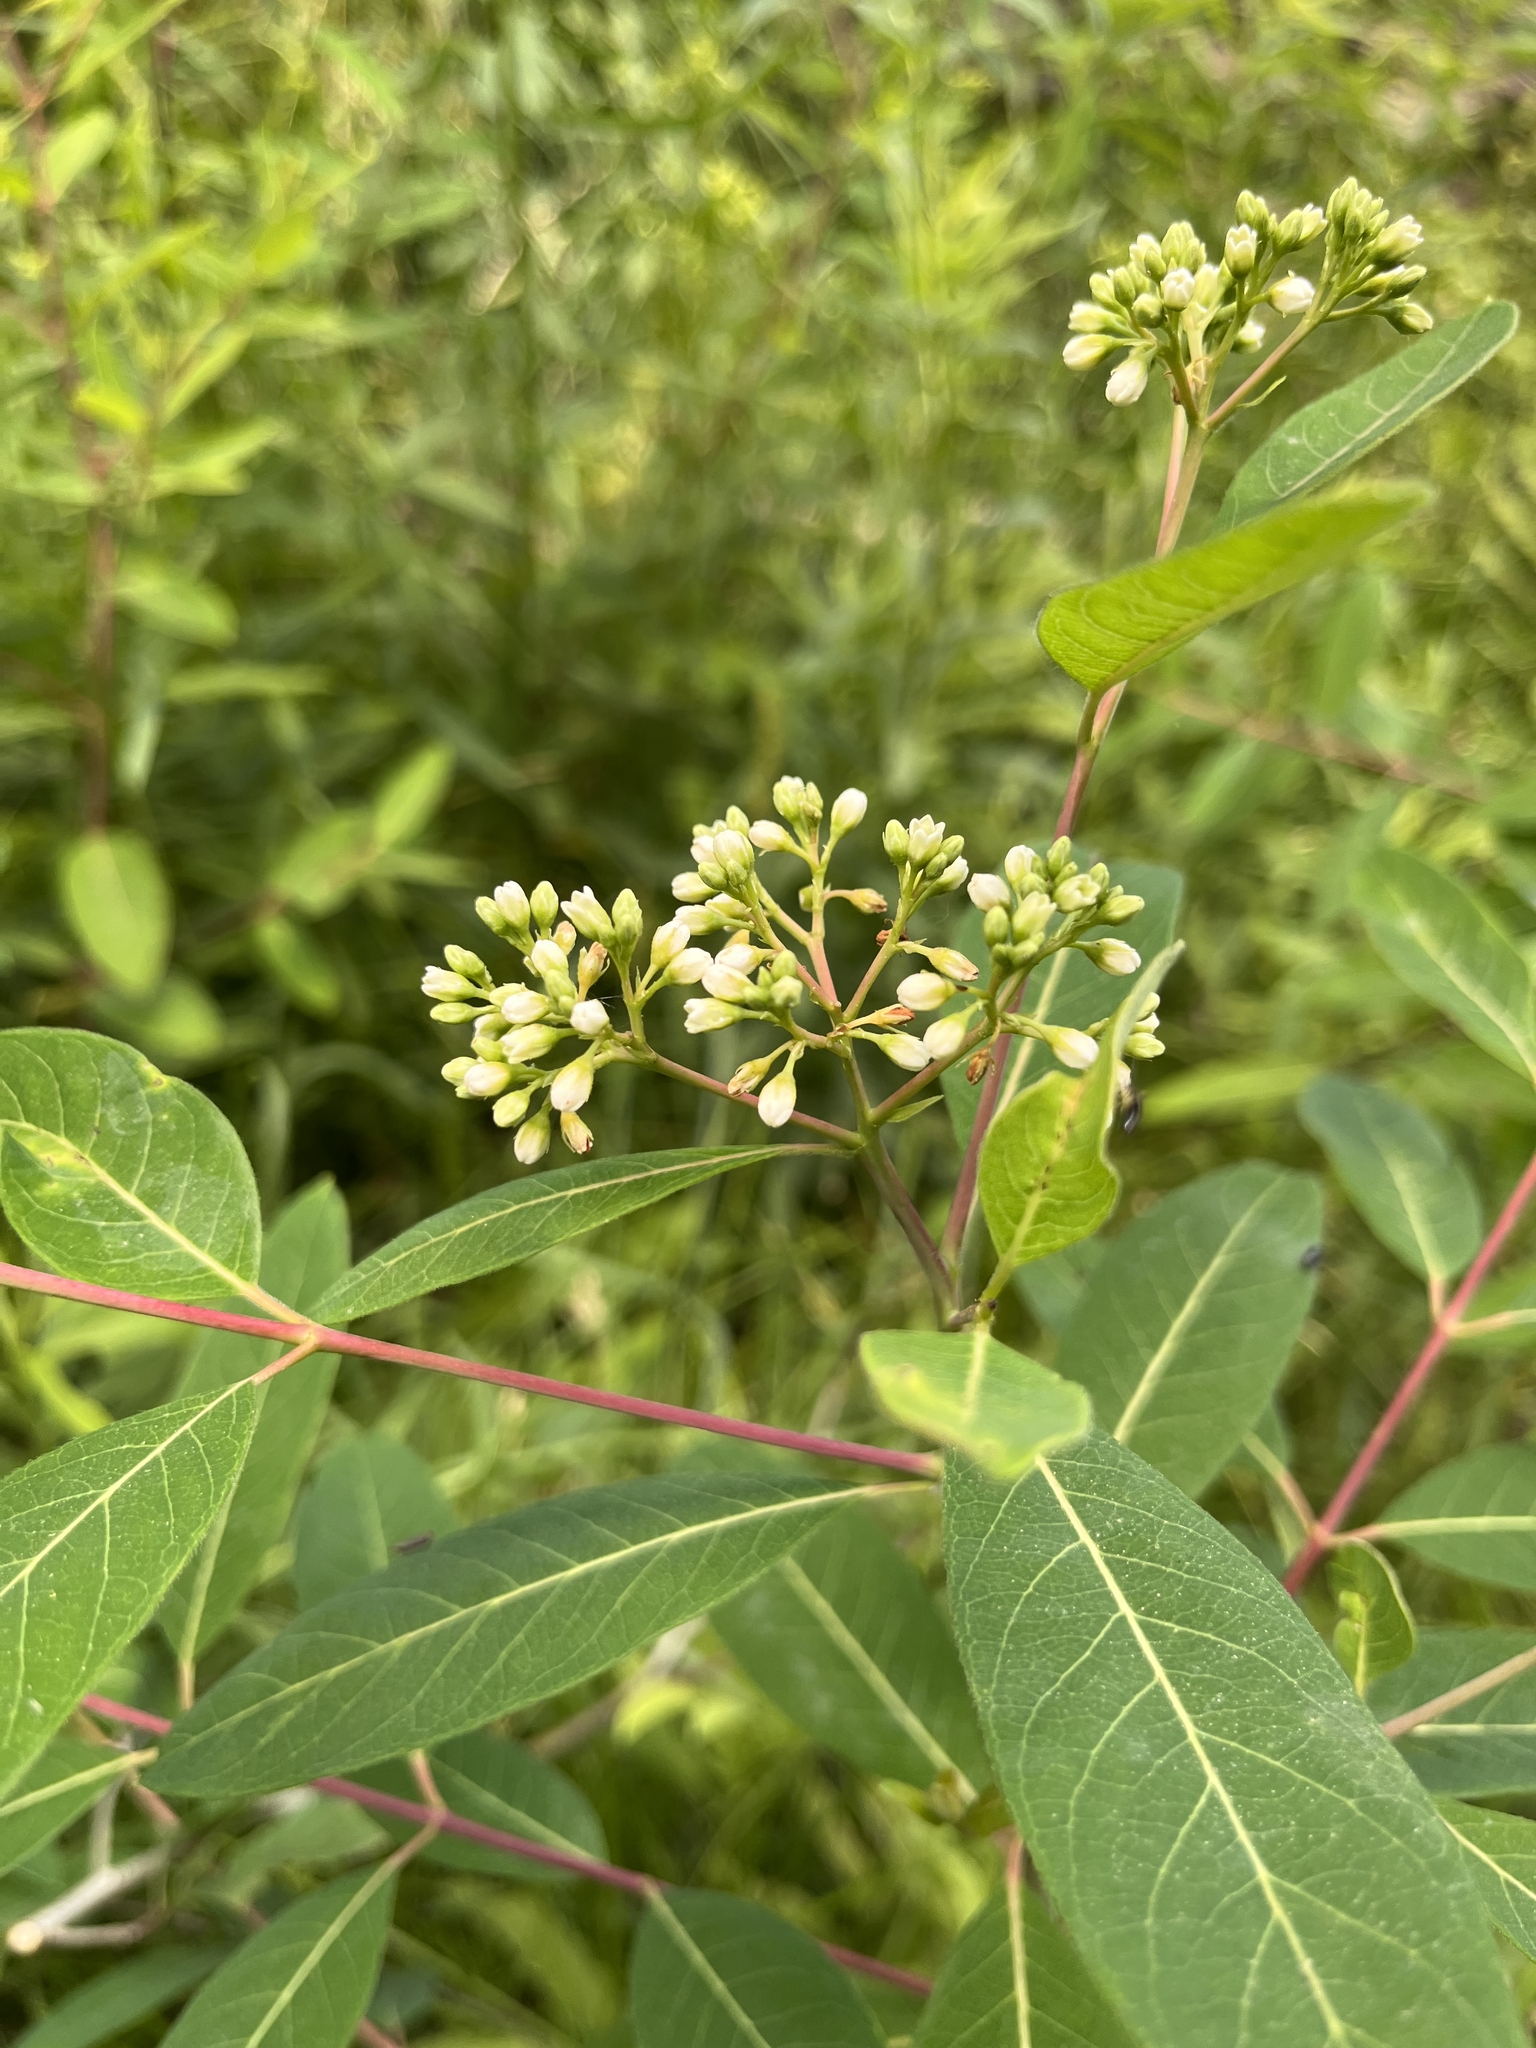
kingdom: Plantae
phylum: Tracheophyta
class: Magnoliopsida
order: Gentianales
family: Apocynaceae
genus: Apocynum
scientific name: Apocynum cannabinum
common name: Hemp dogbane
